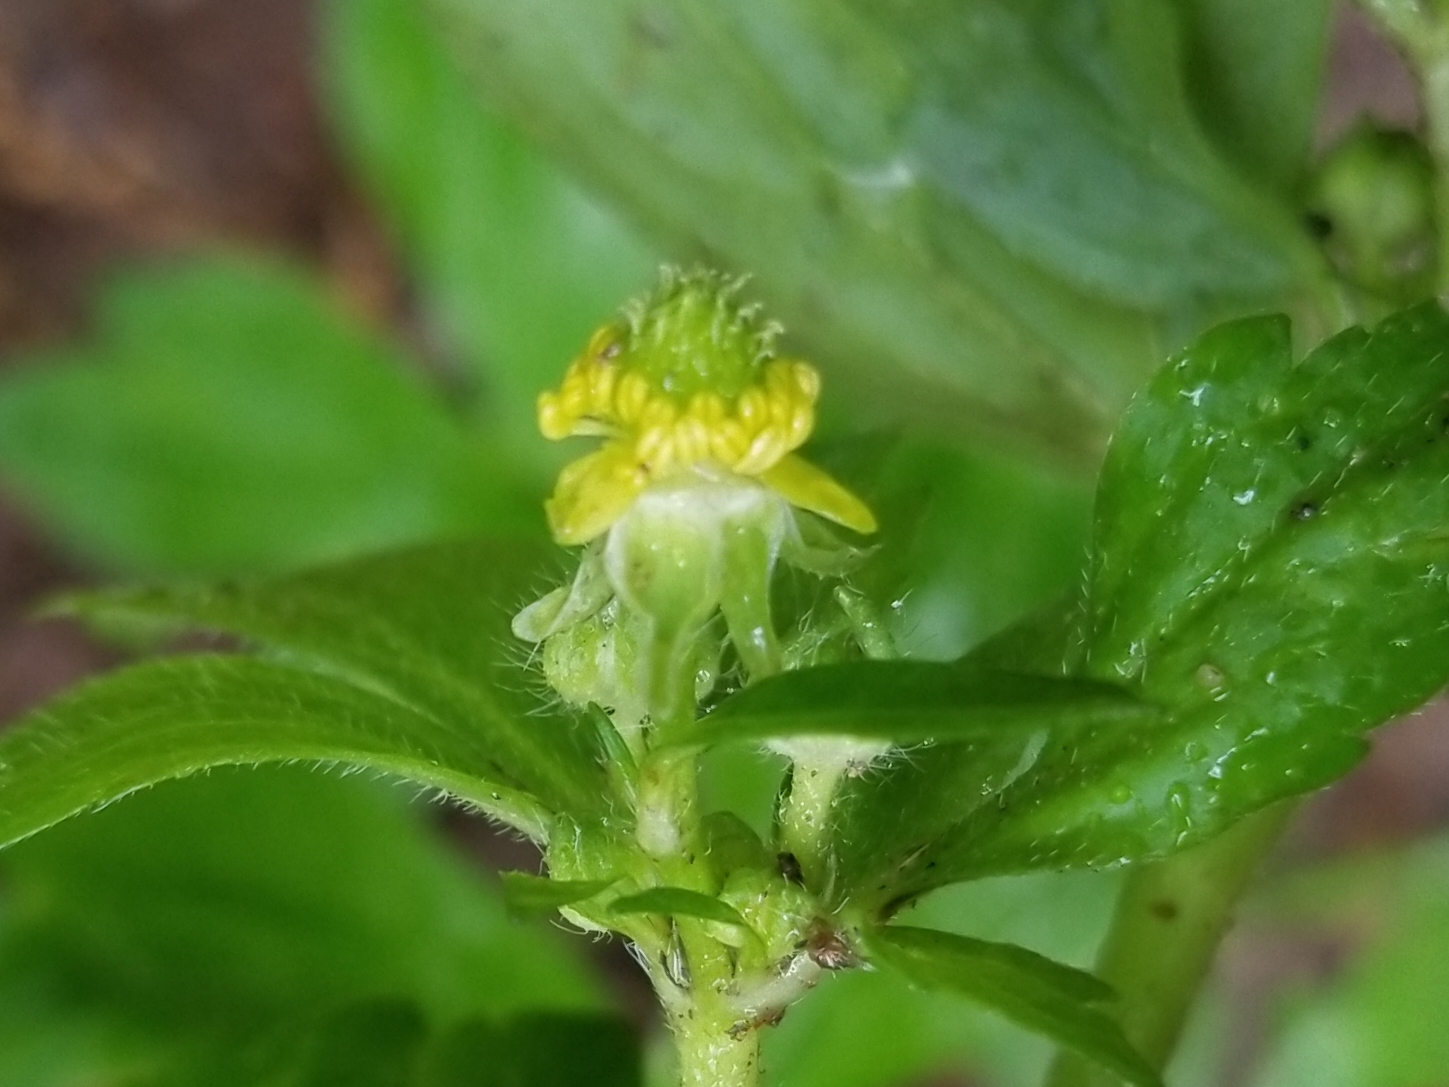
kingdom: Plantae
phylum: Tracheophyta
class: Magnoliopsida
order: Ranunculales
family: Ranunculaceae
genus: Ranunculus
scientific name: Ranunculus recurvatus
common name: Blisterwort
